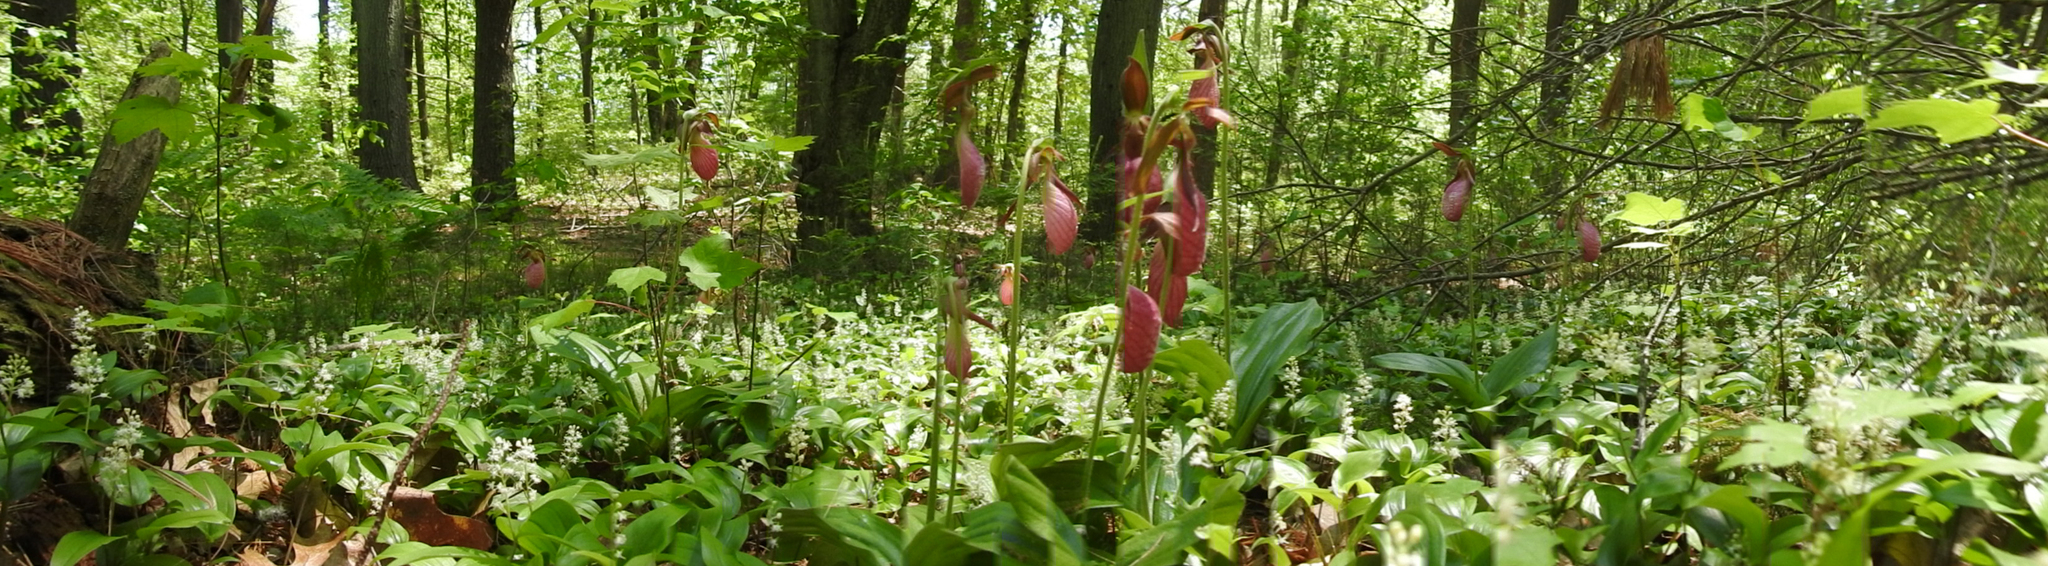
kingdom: Plantae
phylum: Tracheophyta
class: Liliopsida
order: Asparagales
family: Orchidaceae
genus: Cypripedium
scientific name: Cypripedium acaule
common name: Pink lady's-slipper
